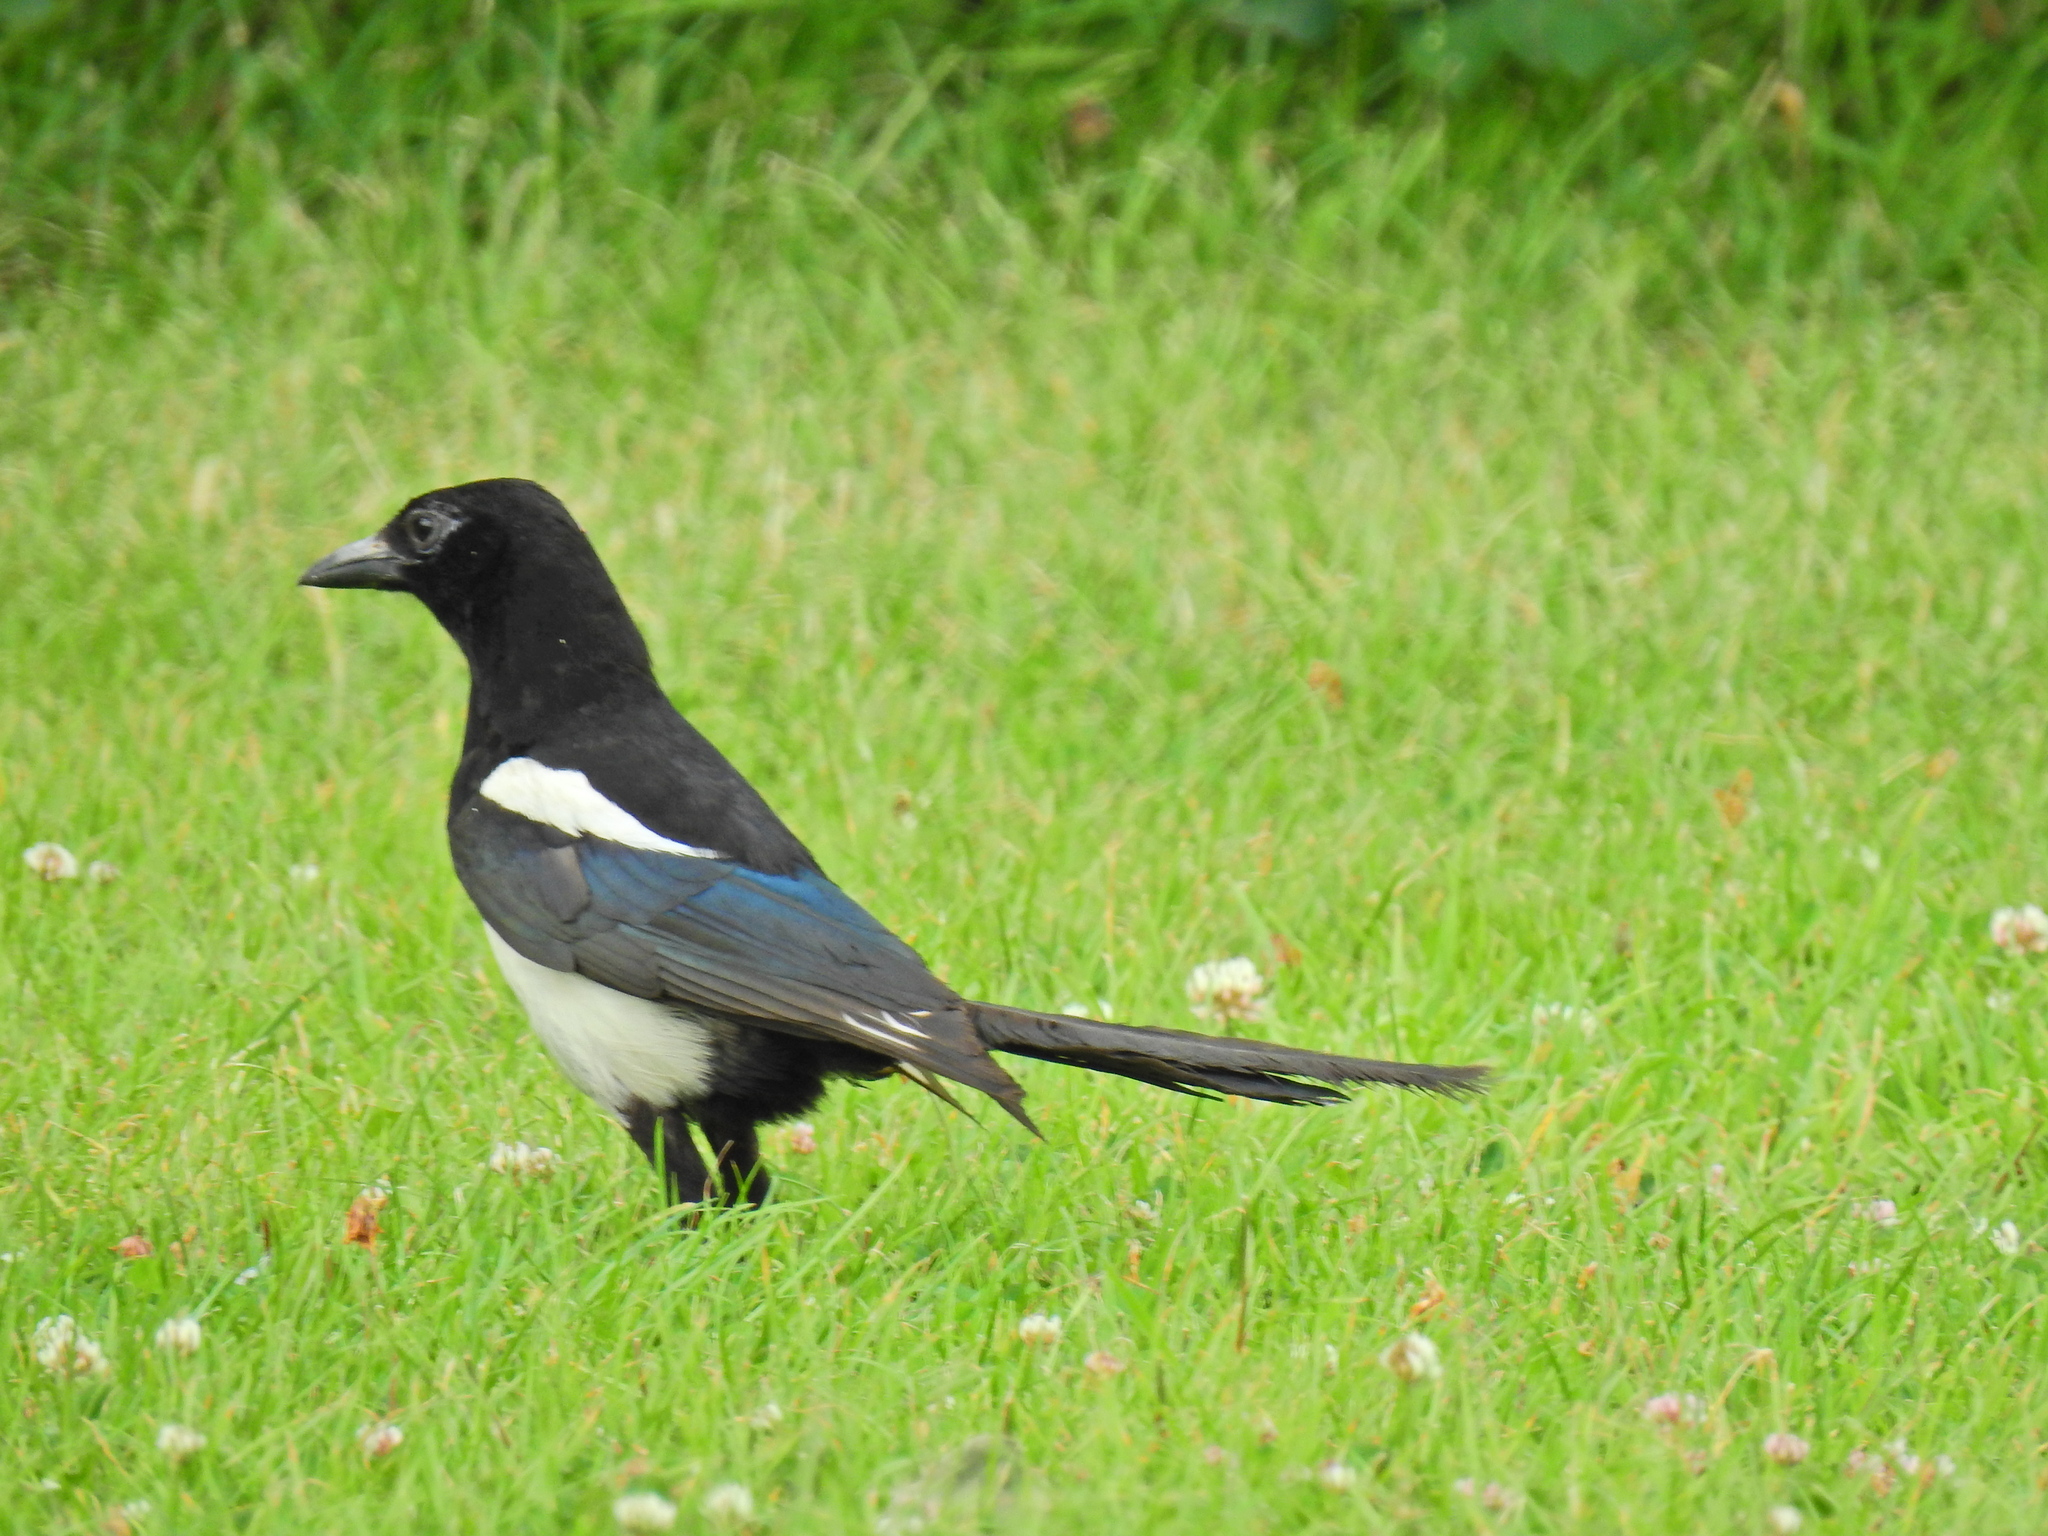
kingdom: Animalia
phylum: Chordata
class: Aves
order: Passeriformes
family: Corvidae
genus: Pica
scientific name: Pica pica
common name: Eurasian magpie
